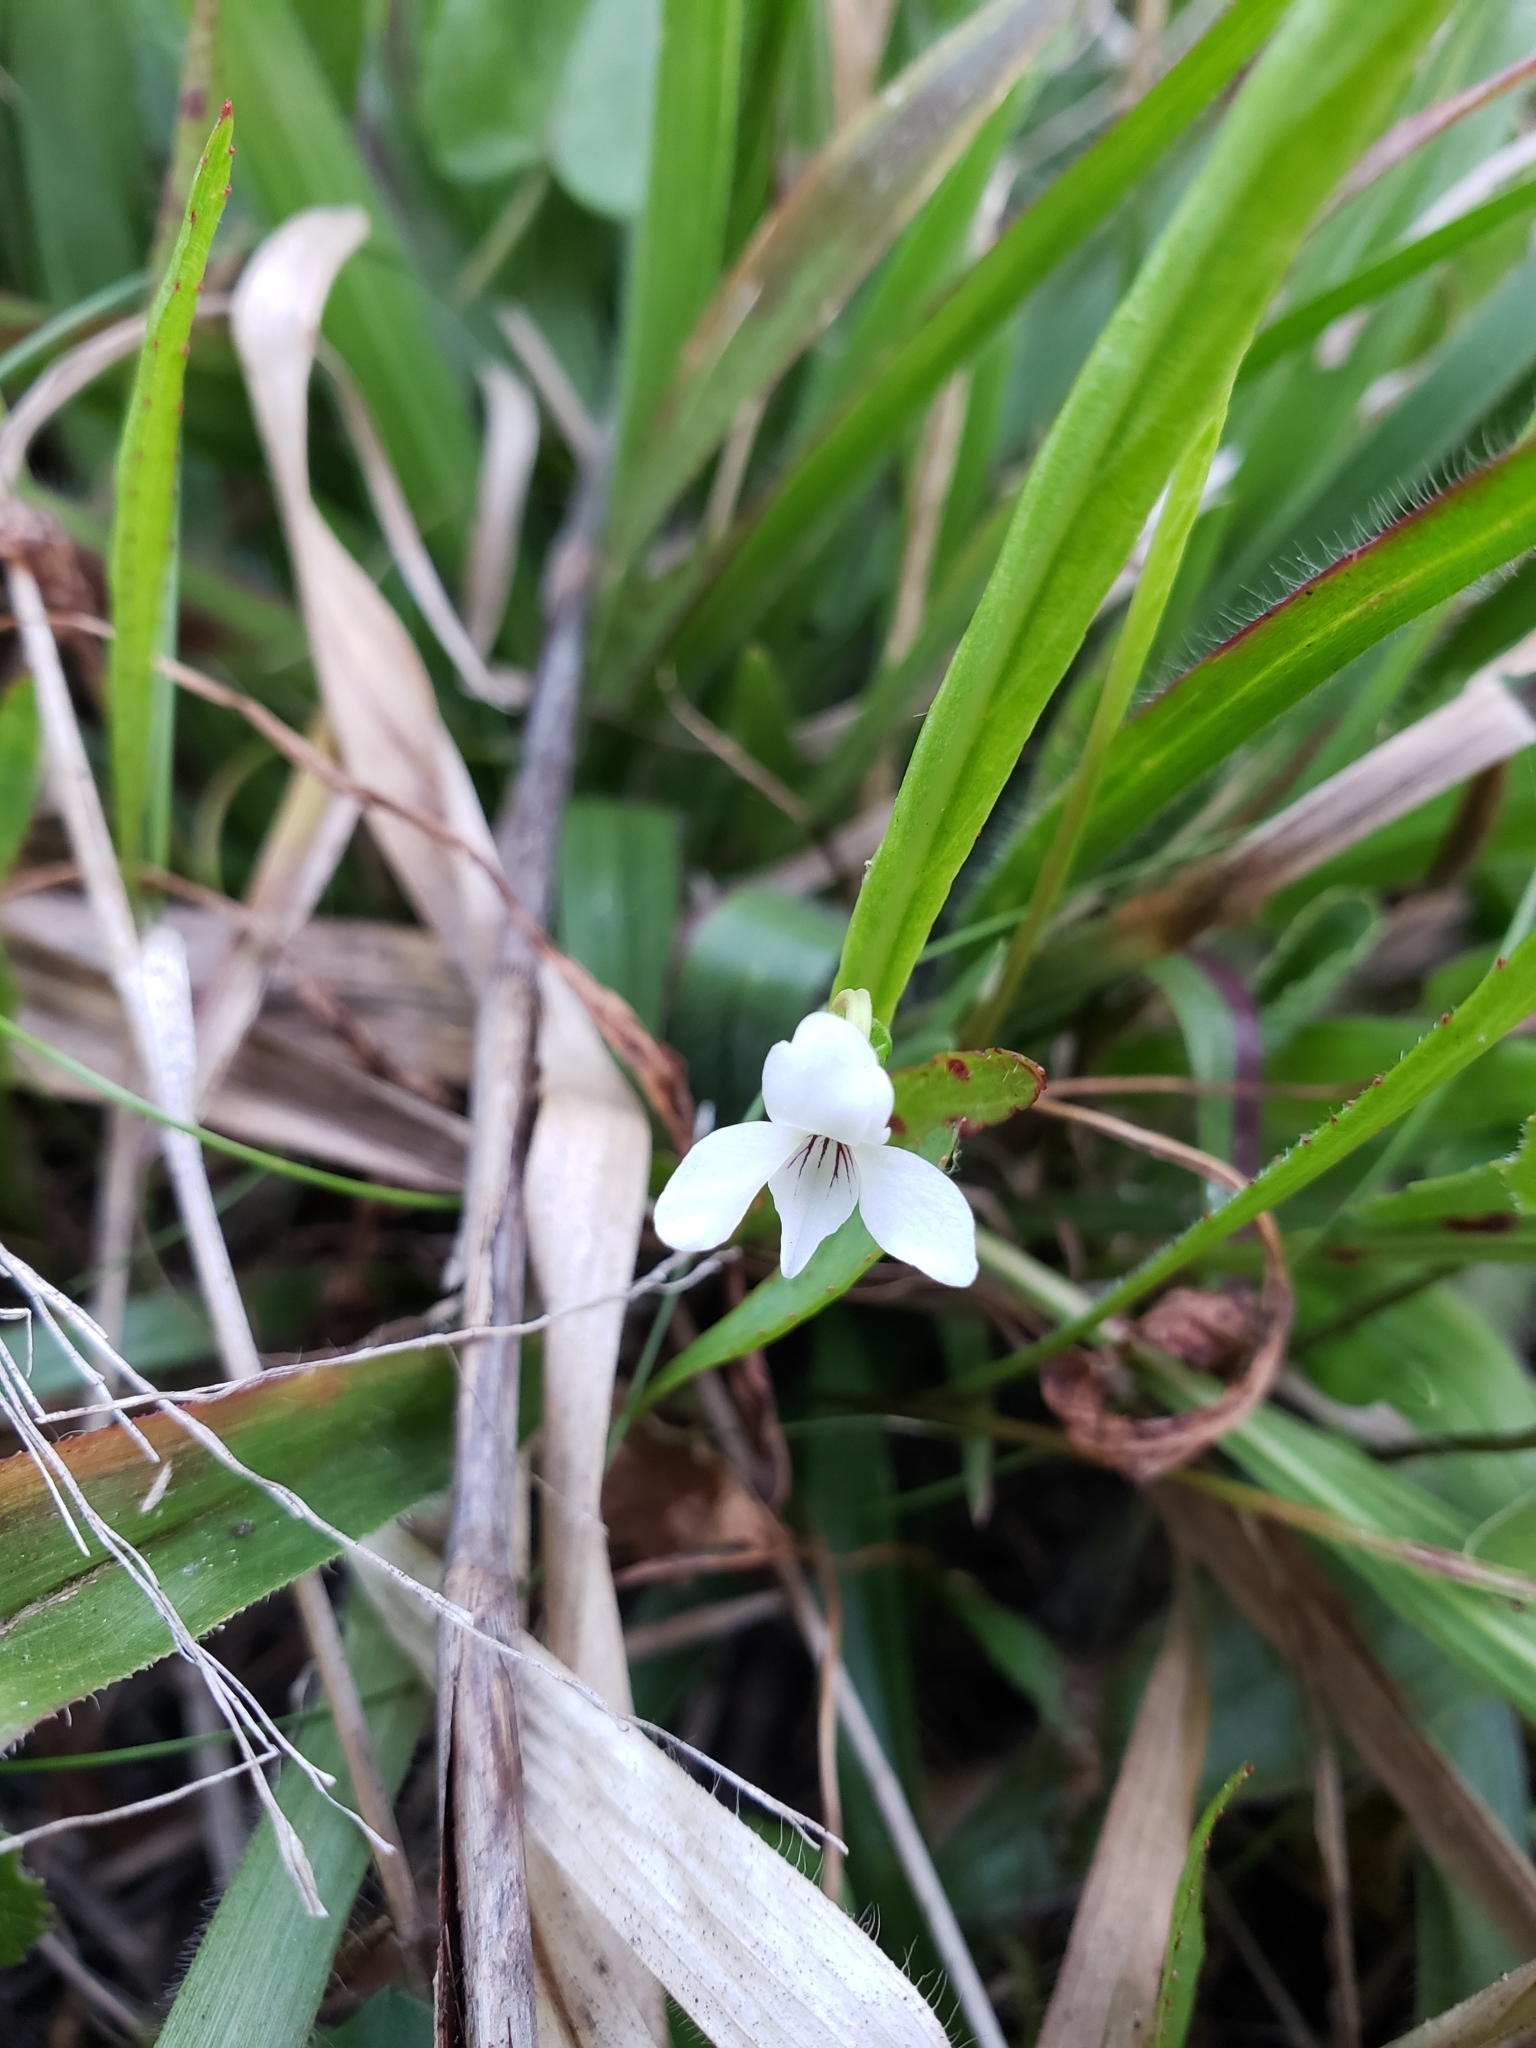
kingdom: Plantae
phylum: Tracheophyta
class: Magnoliopsida
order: Malpighiales
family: Violaceae
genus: Viola
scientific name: Viola lanceolata
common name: Bog white violet
